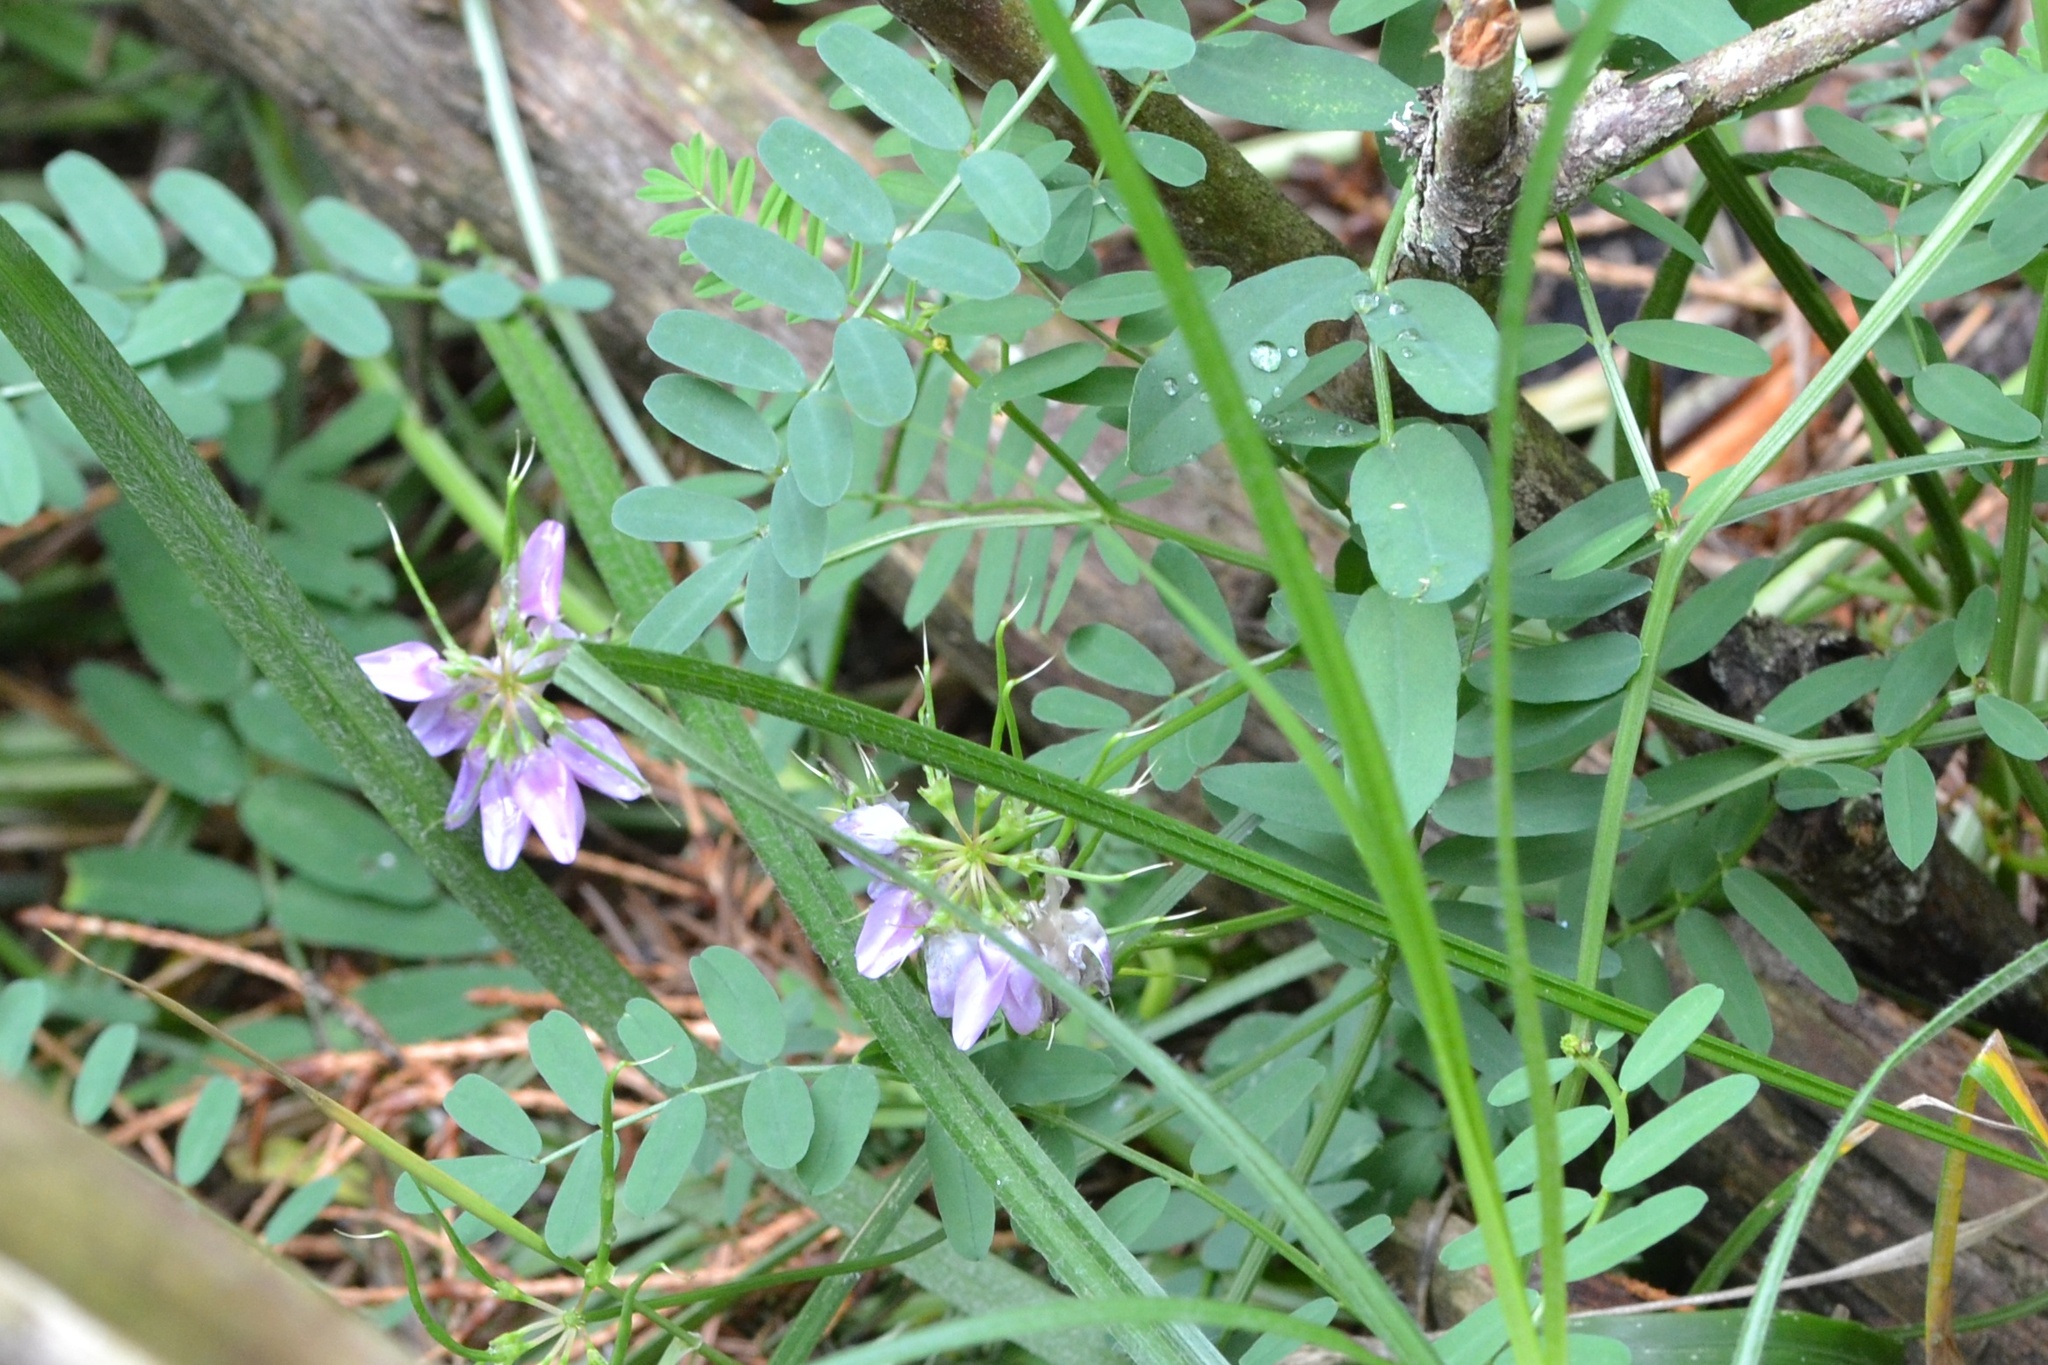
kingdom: Plantae
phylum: Tracheophyta
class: Magnoliopsida
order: Fabales
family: Fabaceae
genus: Coronilla
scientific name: Coronilla varia
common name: Crownvetch
